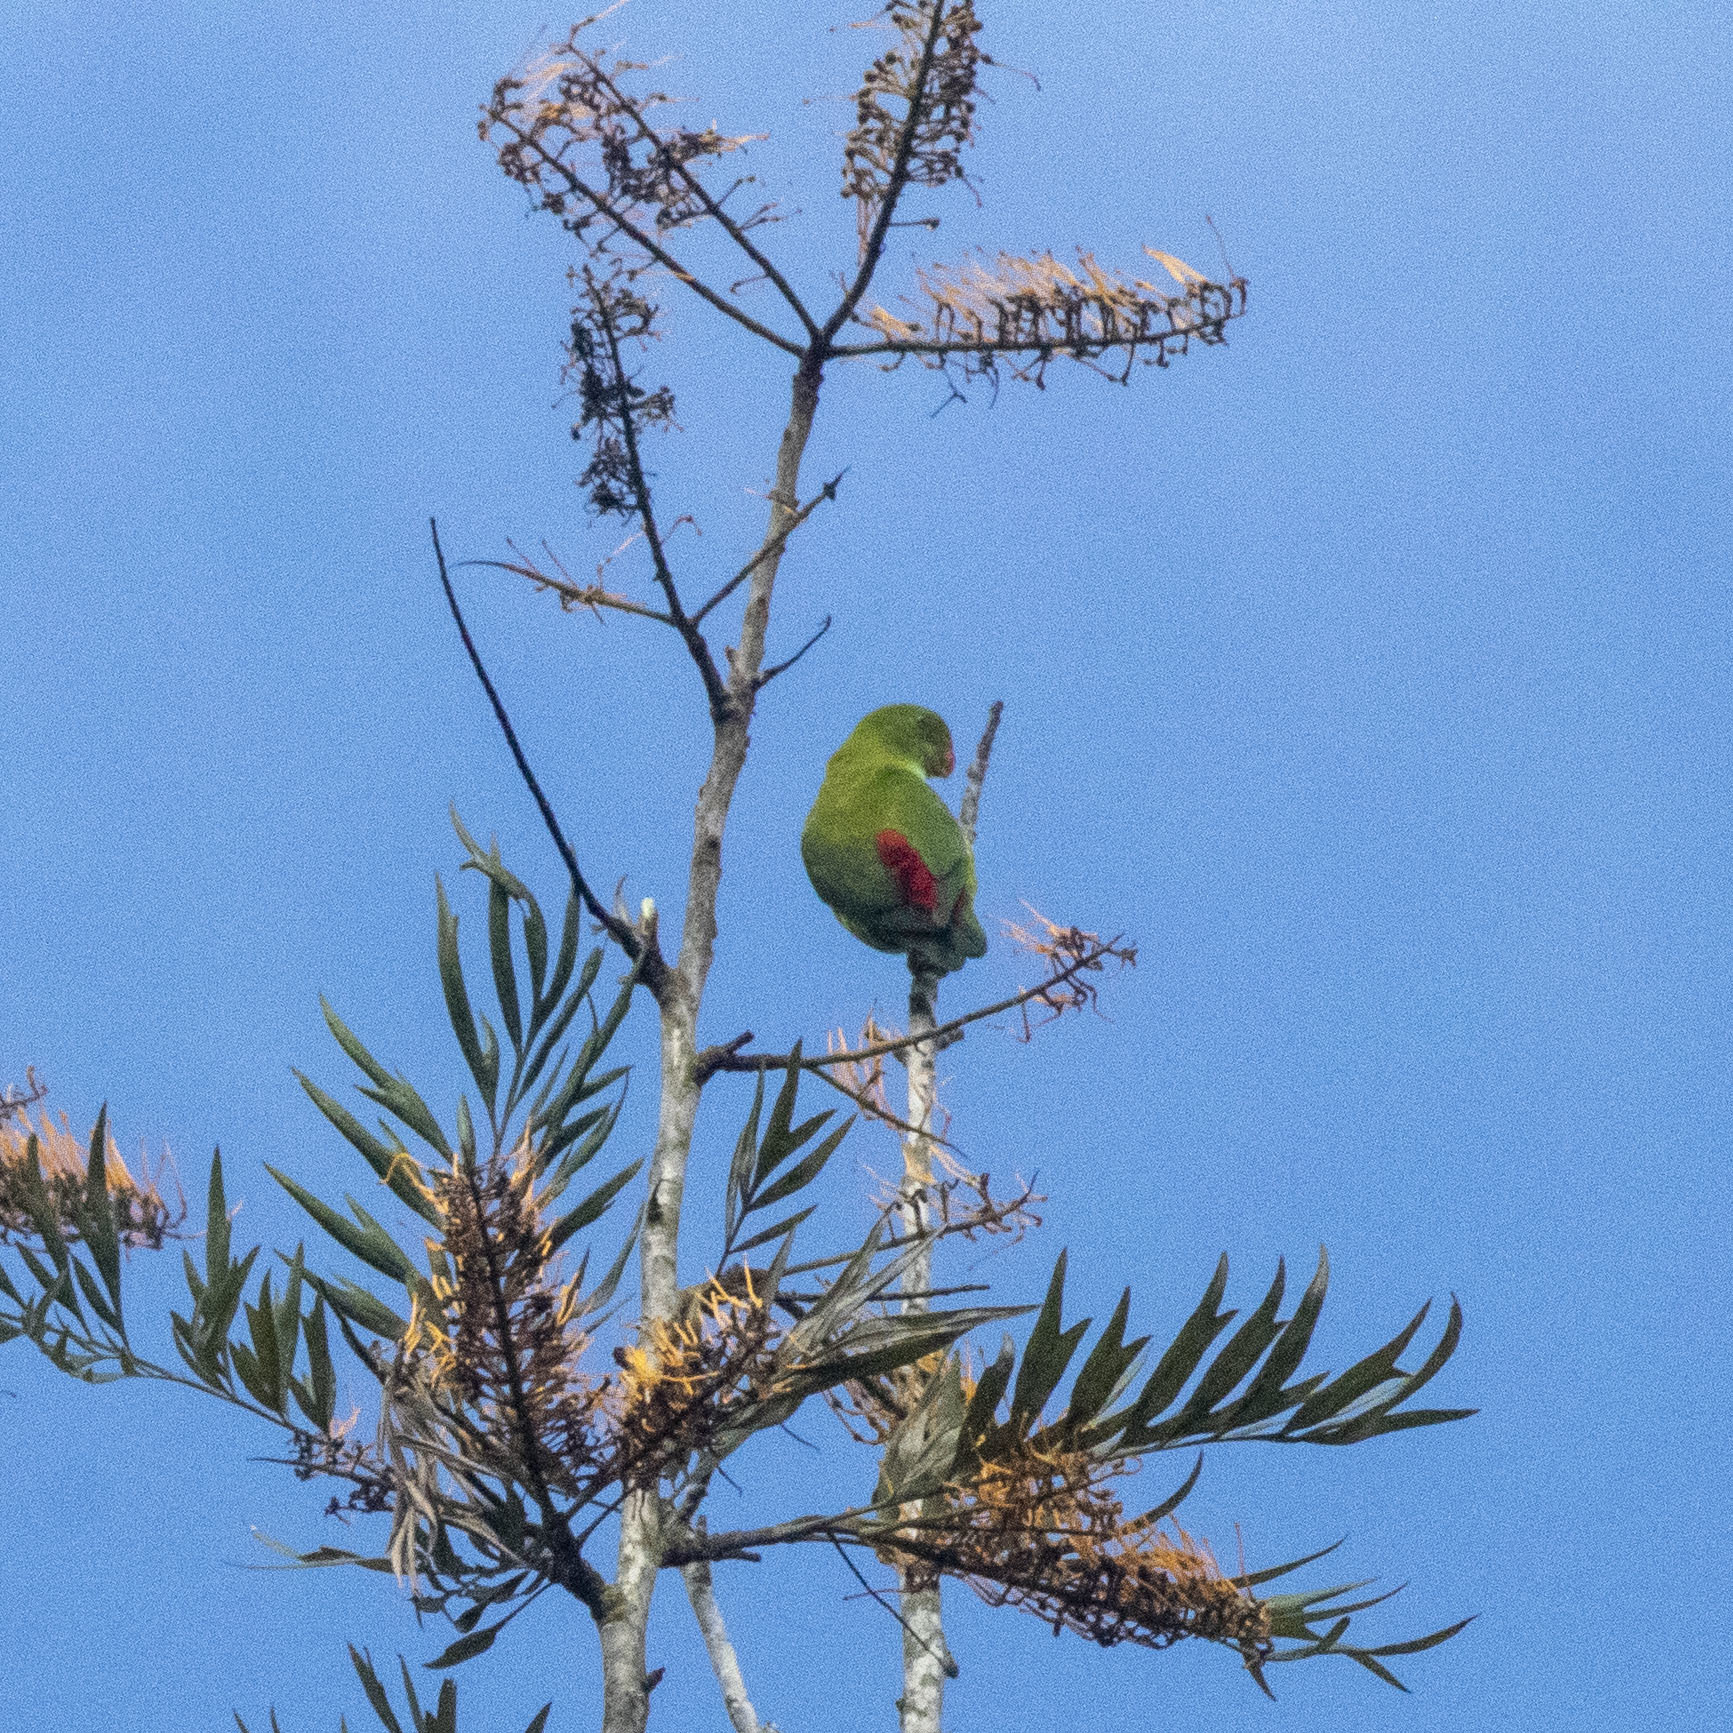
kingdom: Animalia
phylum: Chordata
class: Aves
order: Psittaciformes
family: Psittacidae
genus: Loriculus
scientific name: Loriculus vernalis
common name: Vernal hanging parrot
